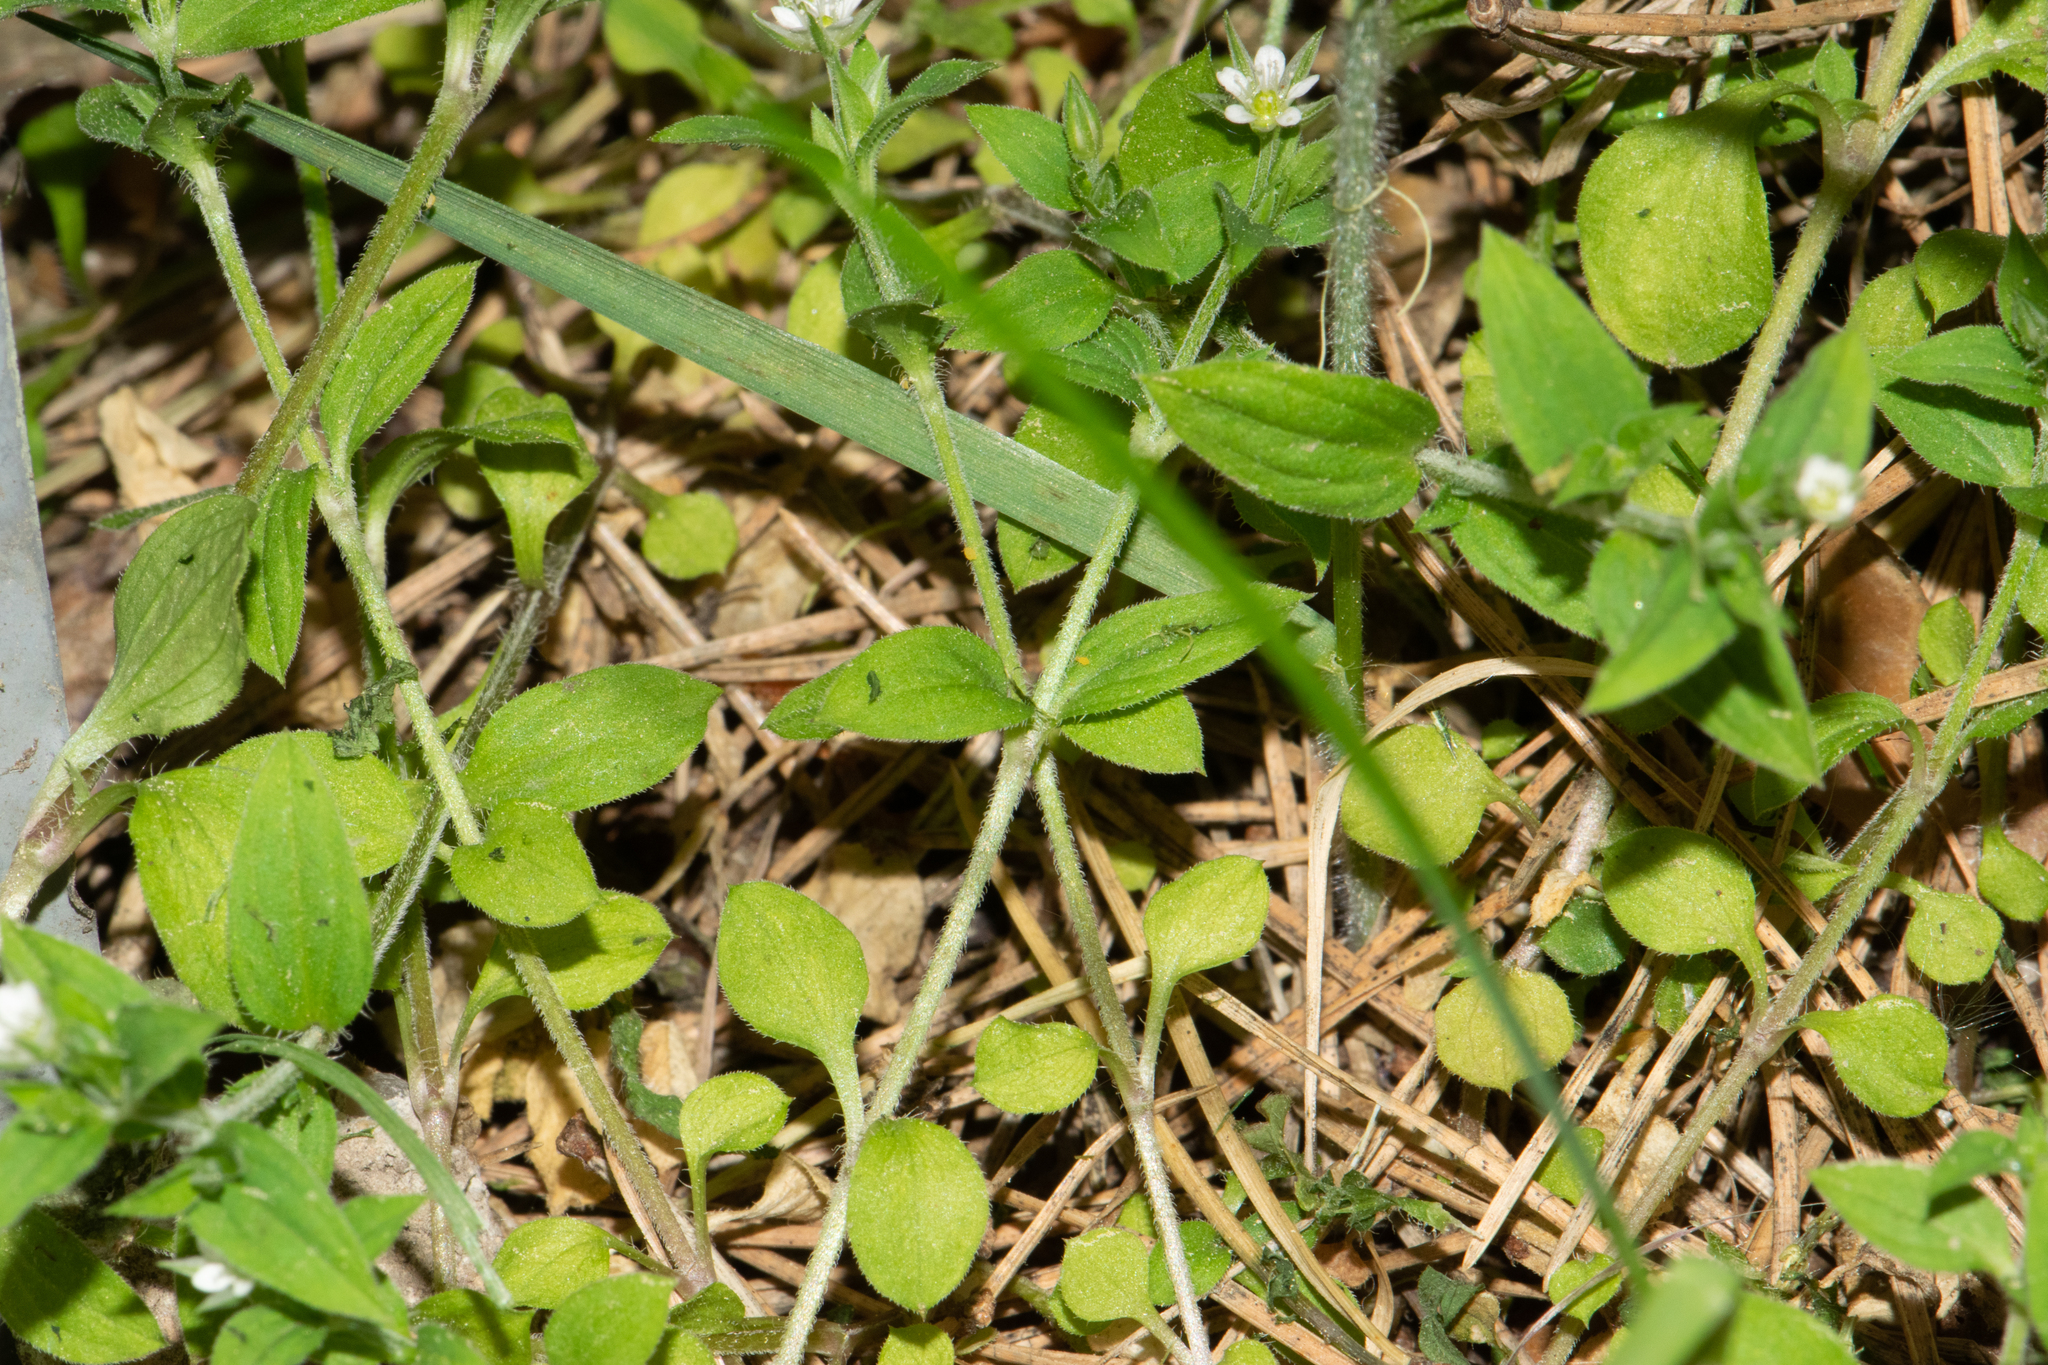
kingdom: Plantae
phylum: Tracheophyta
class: Magnoliopsida
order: Caryophyllales
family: Caryophyllaceae
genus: Moehringia
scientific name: Moehringia trinervia
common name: Three-nerved sandwort
